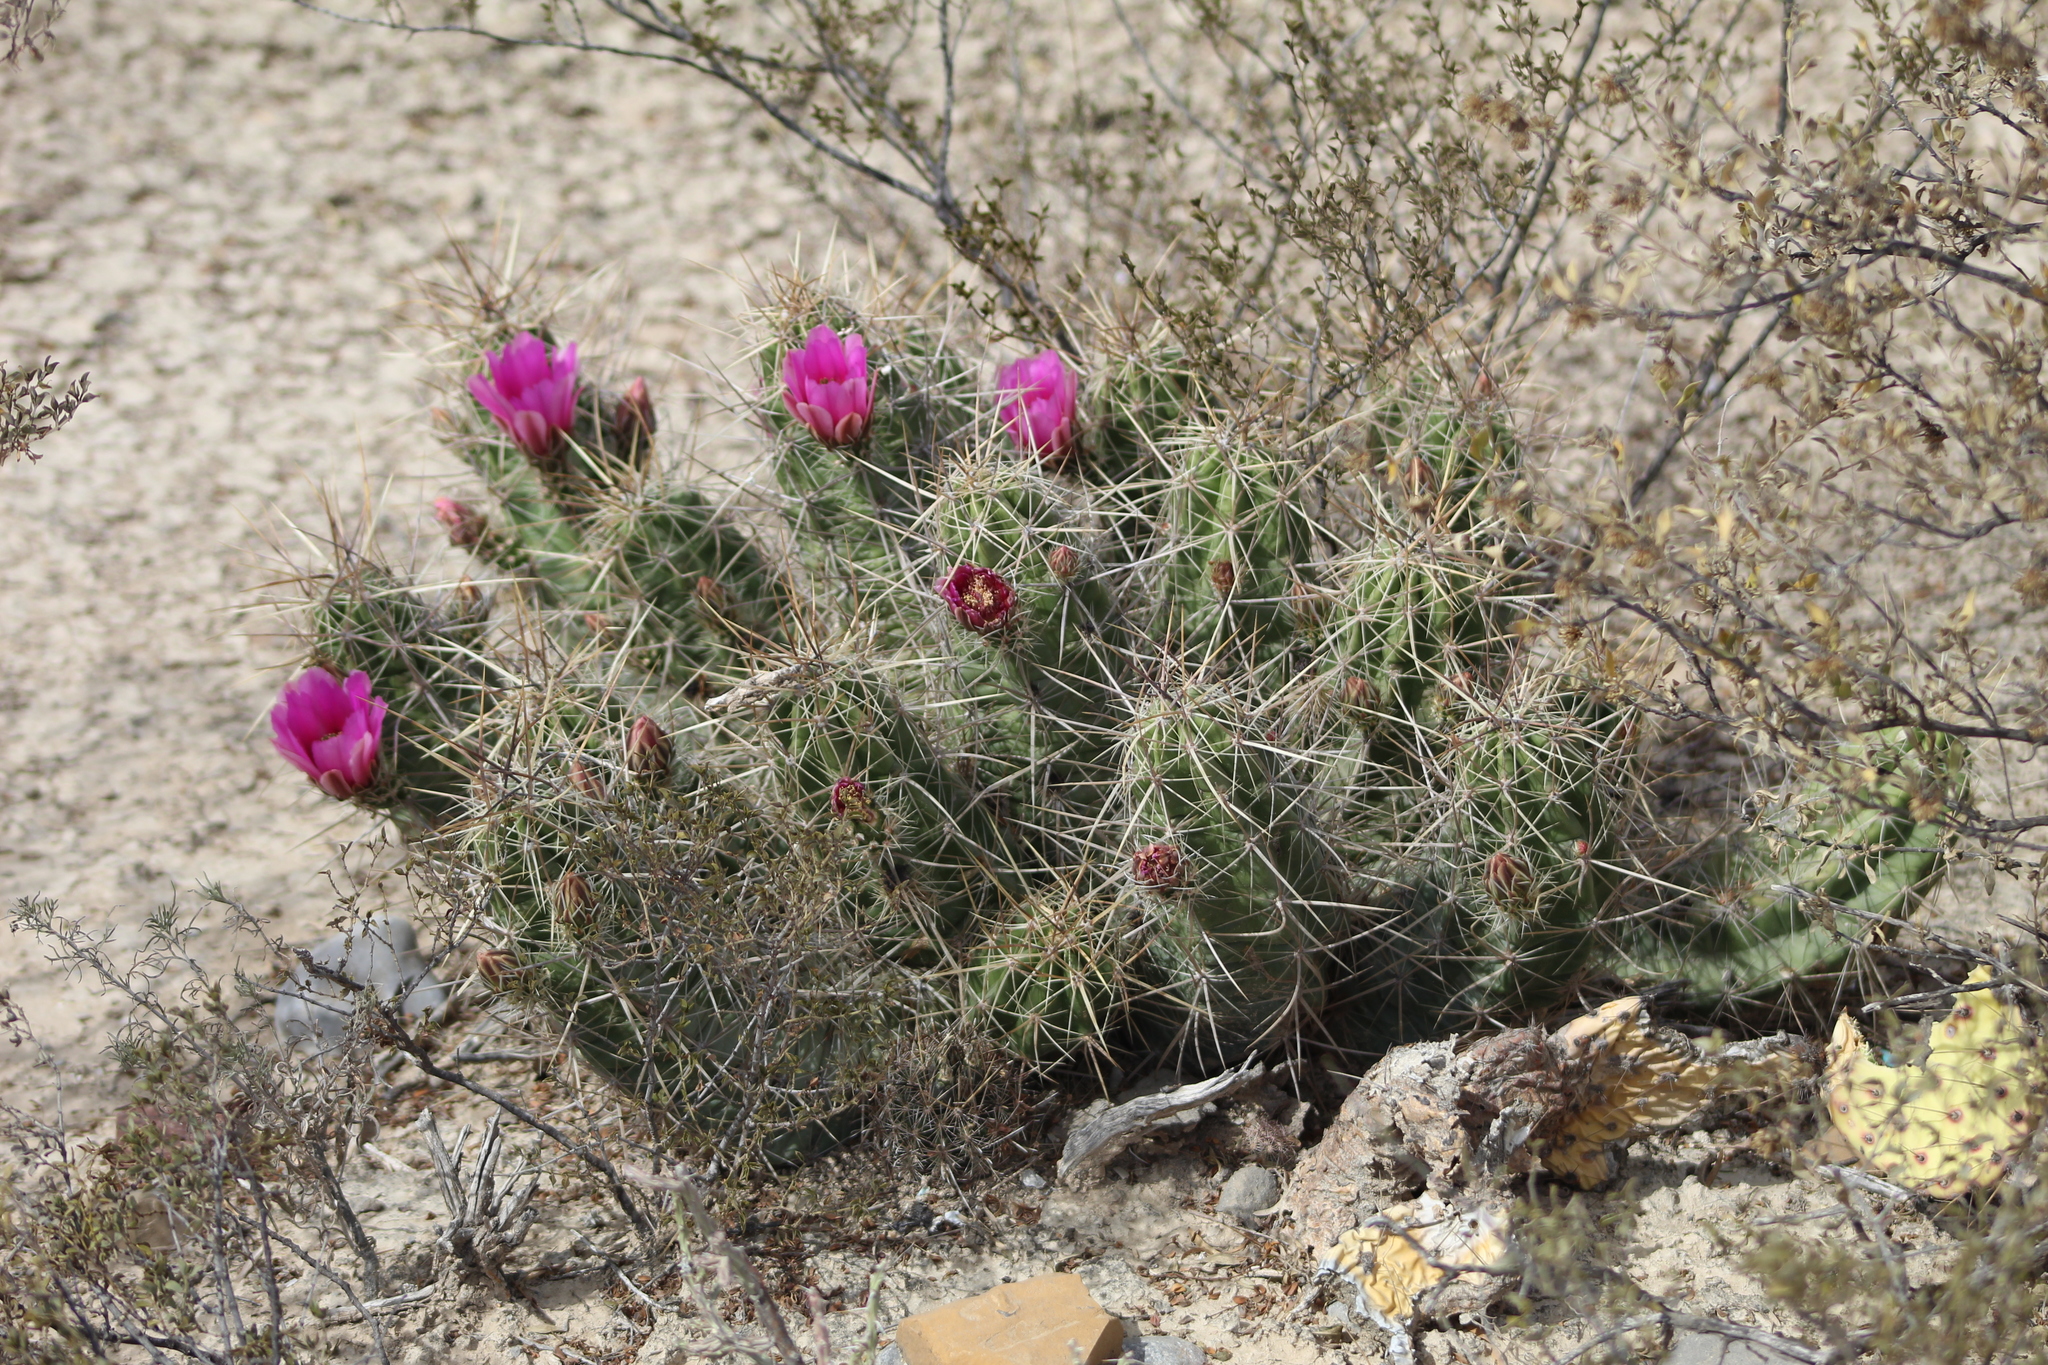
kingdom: Plantae
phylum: Tracheophyta
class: Magnoliopsida
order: Caryophyllales
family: Cactaceae
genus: Echinocereus
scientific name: Echinocereus enneacanthus
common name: Pitaya
